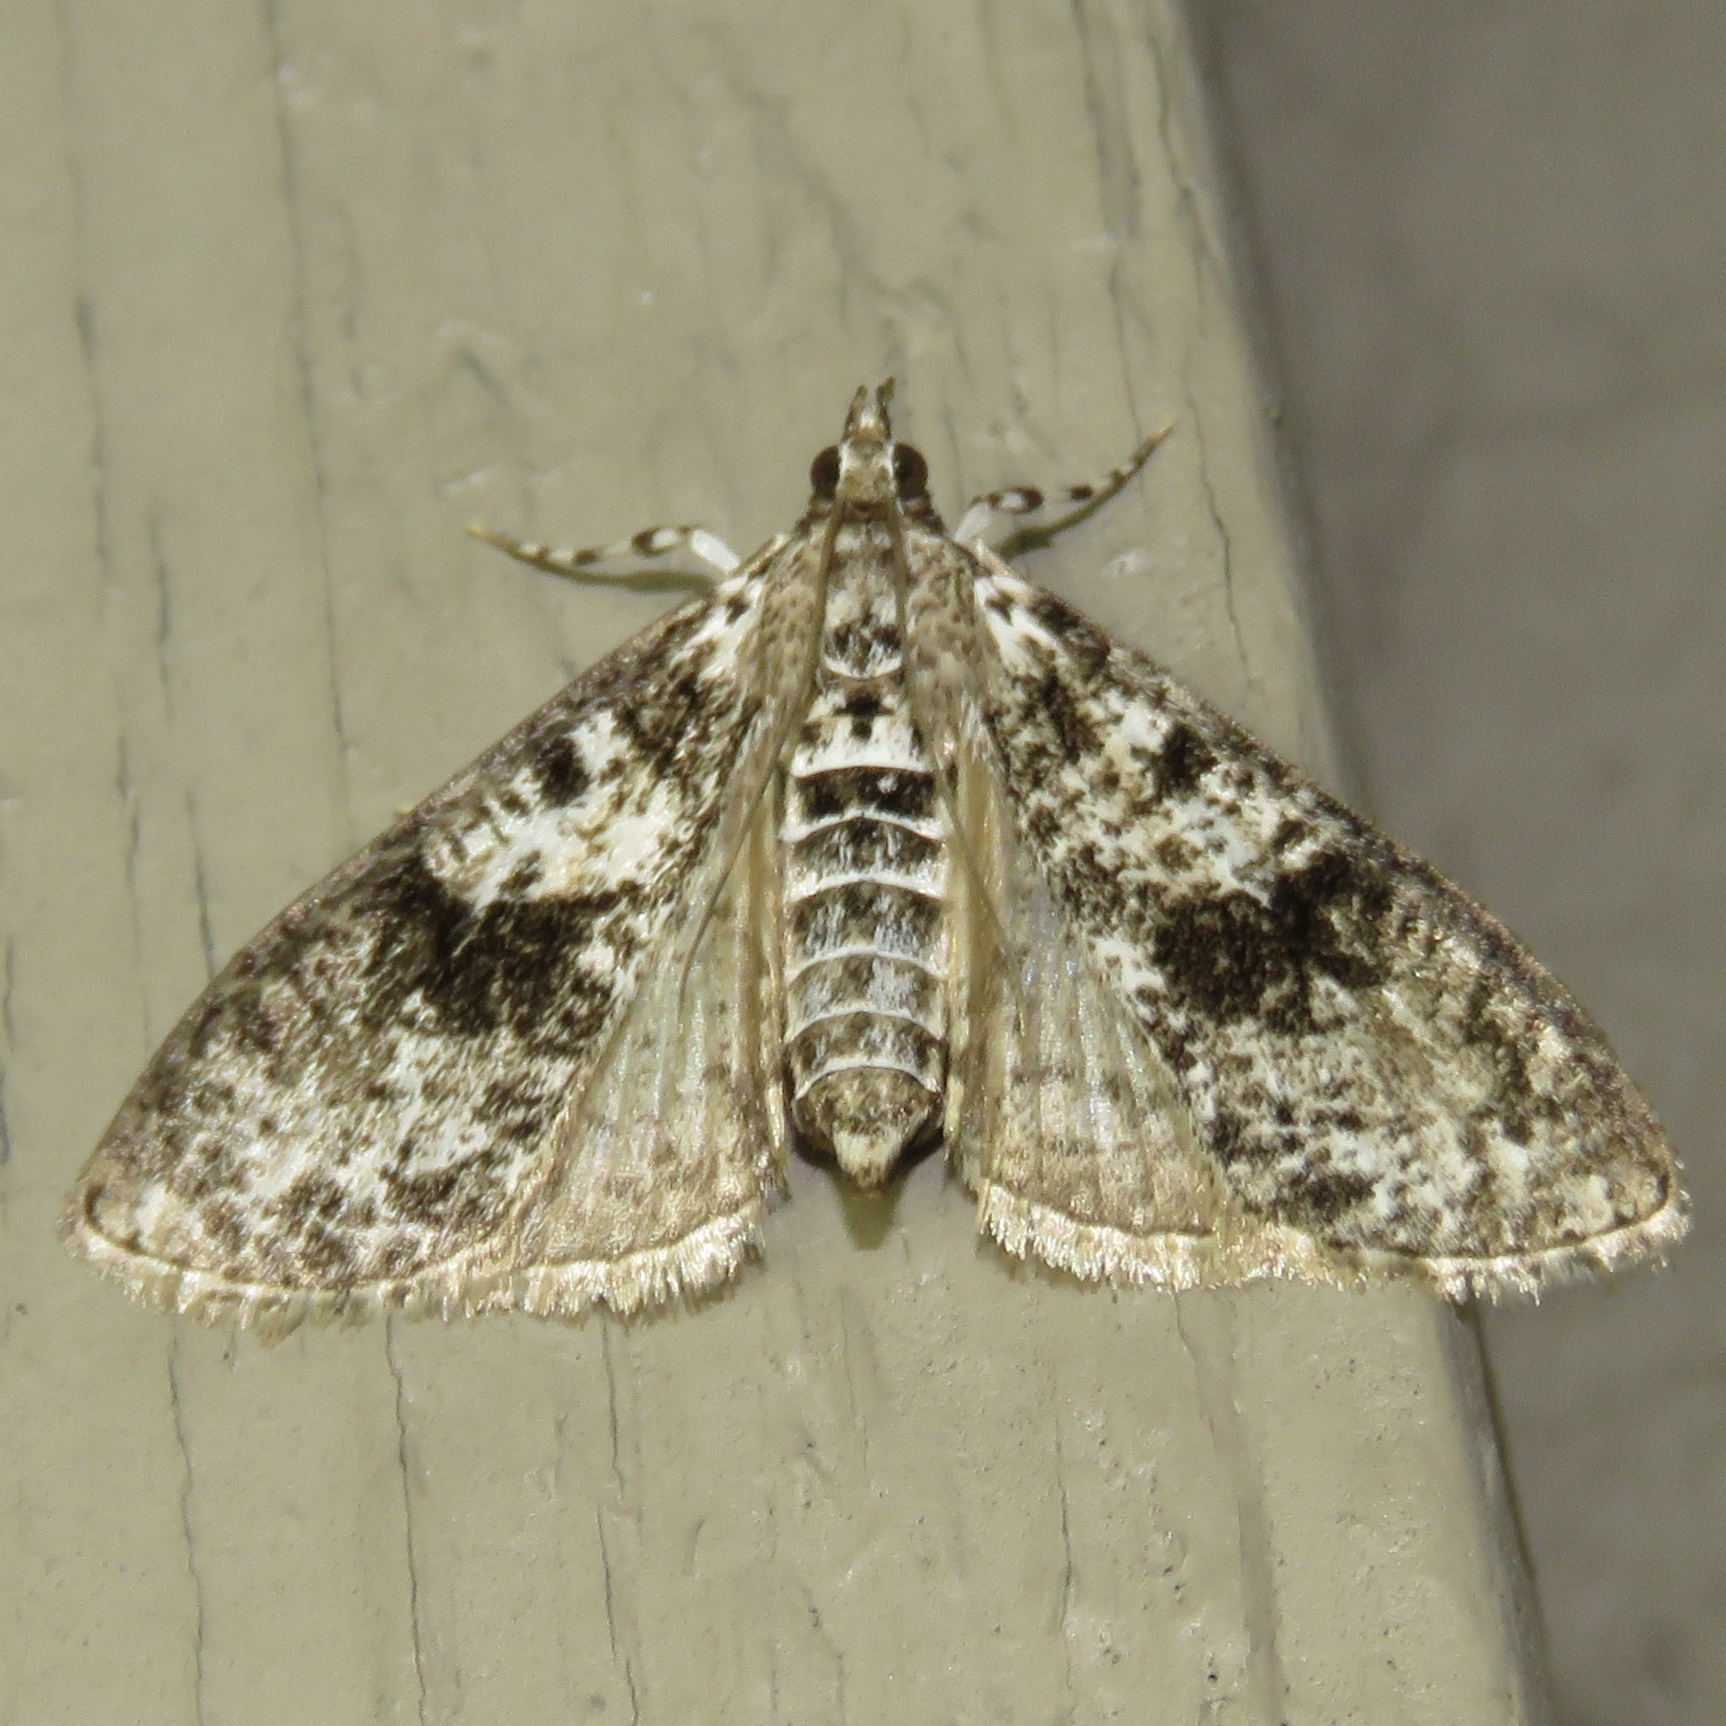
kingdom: Animalia
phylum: Arthropoda
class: Insecta
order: Lepidoptera
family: Crambidae
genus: Palpita
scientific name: Palpita magniferalis
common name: Splendid palpita moth
